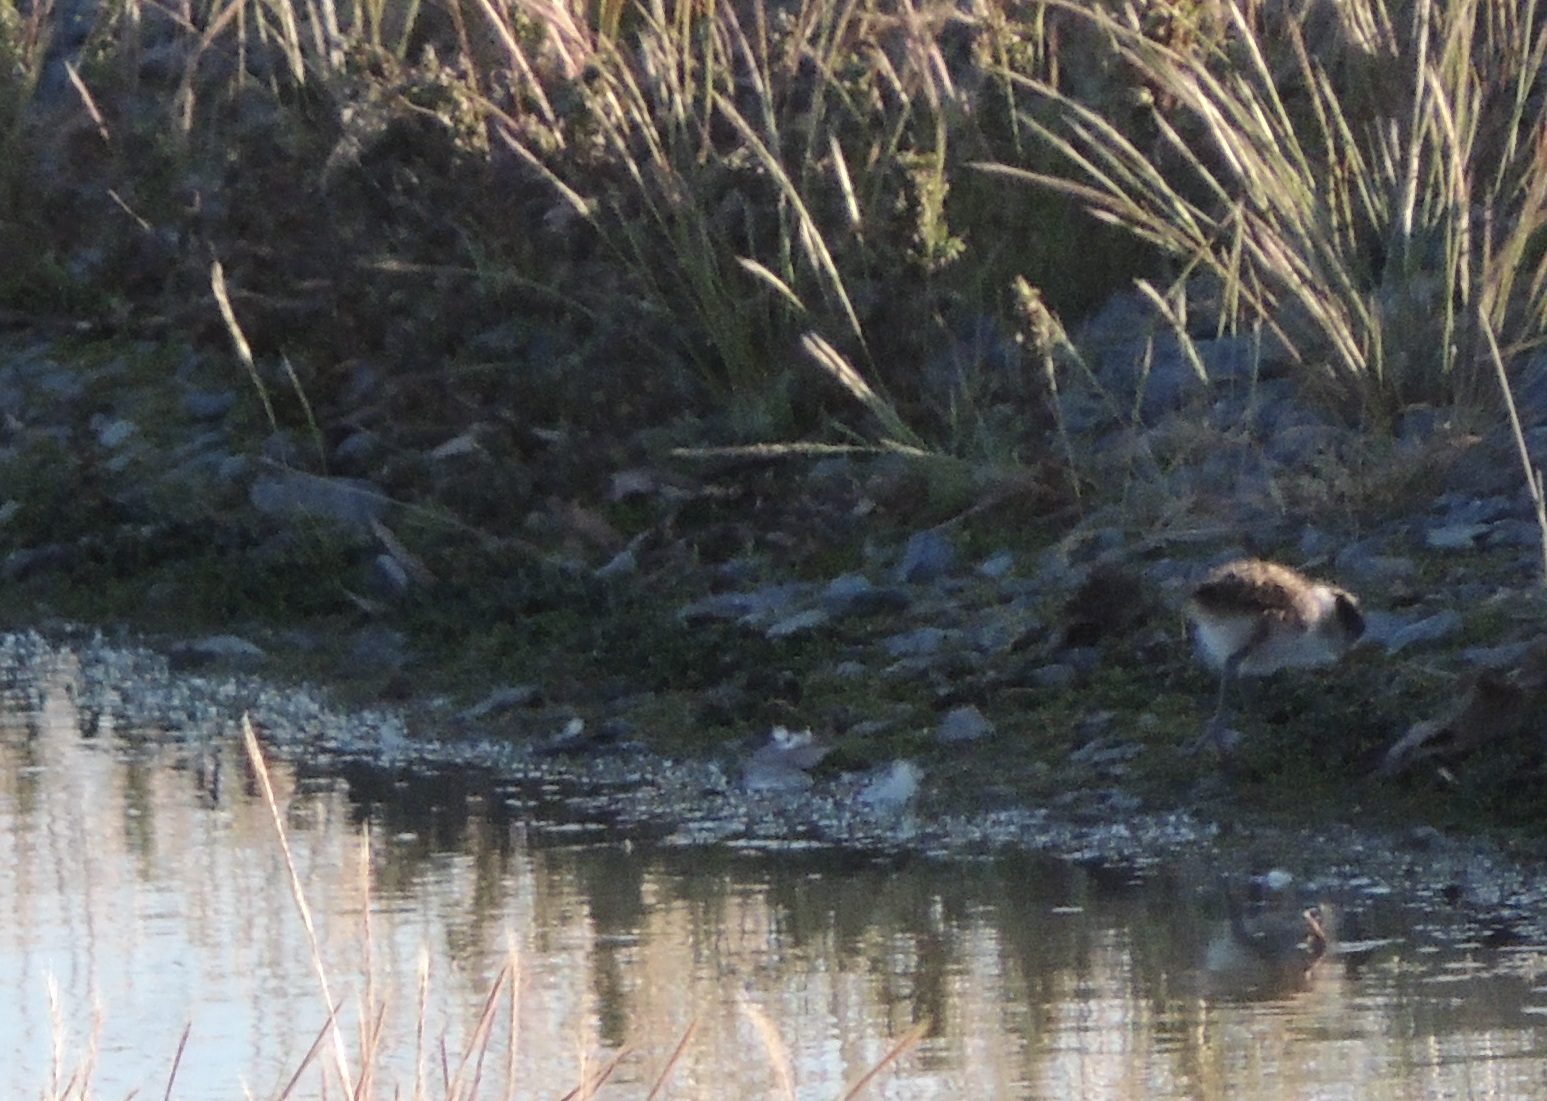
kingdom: Animalia
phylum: Chordata
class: Aves
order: Charadriiformes
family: Charadriidae
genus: Vanellus
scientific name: Vanellus miles
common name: Masked lapwing
